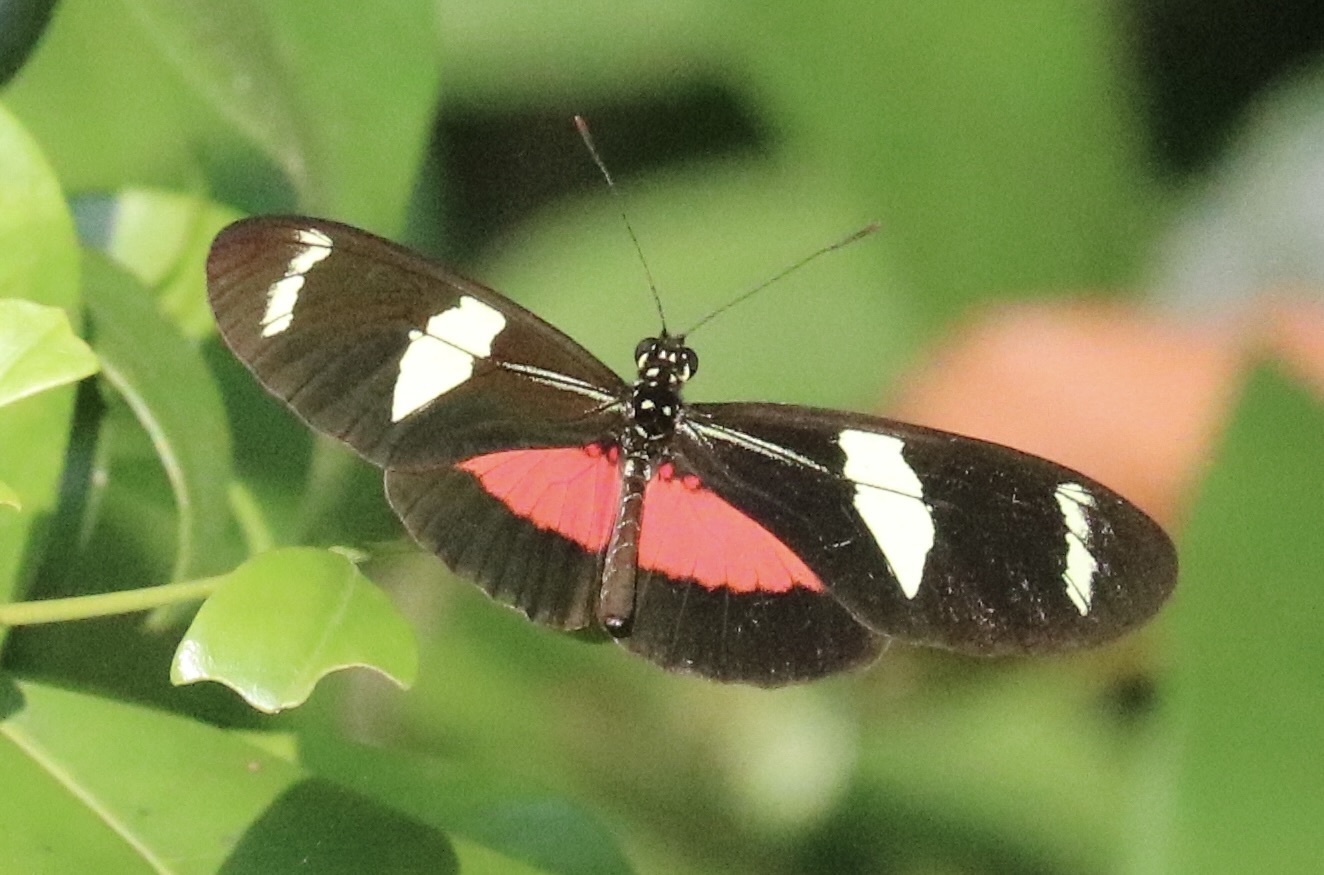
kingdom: Animalia
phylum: Arthropoda
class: Insecta
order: Lepidoptera
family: Nymphalidae
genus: Heliconius
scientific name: Heliconius ricini
